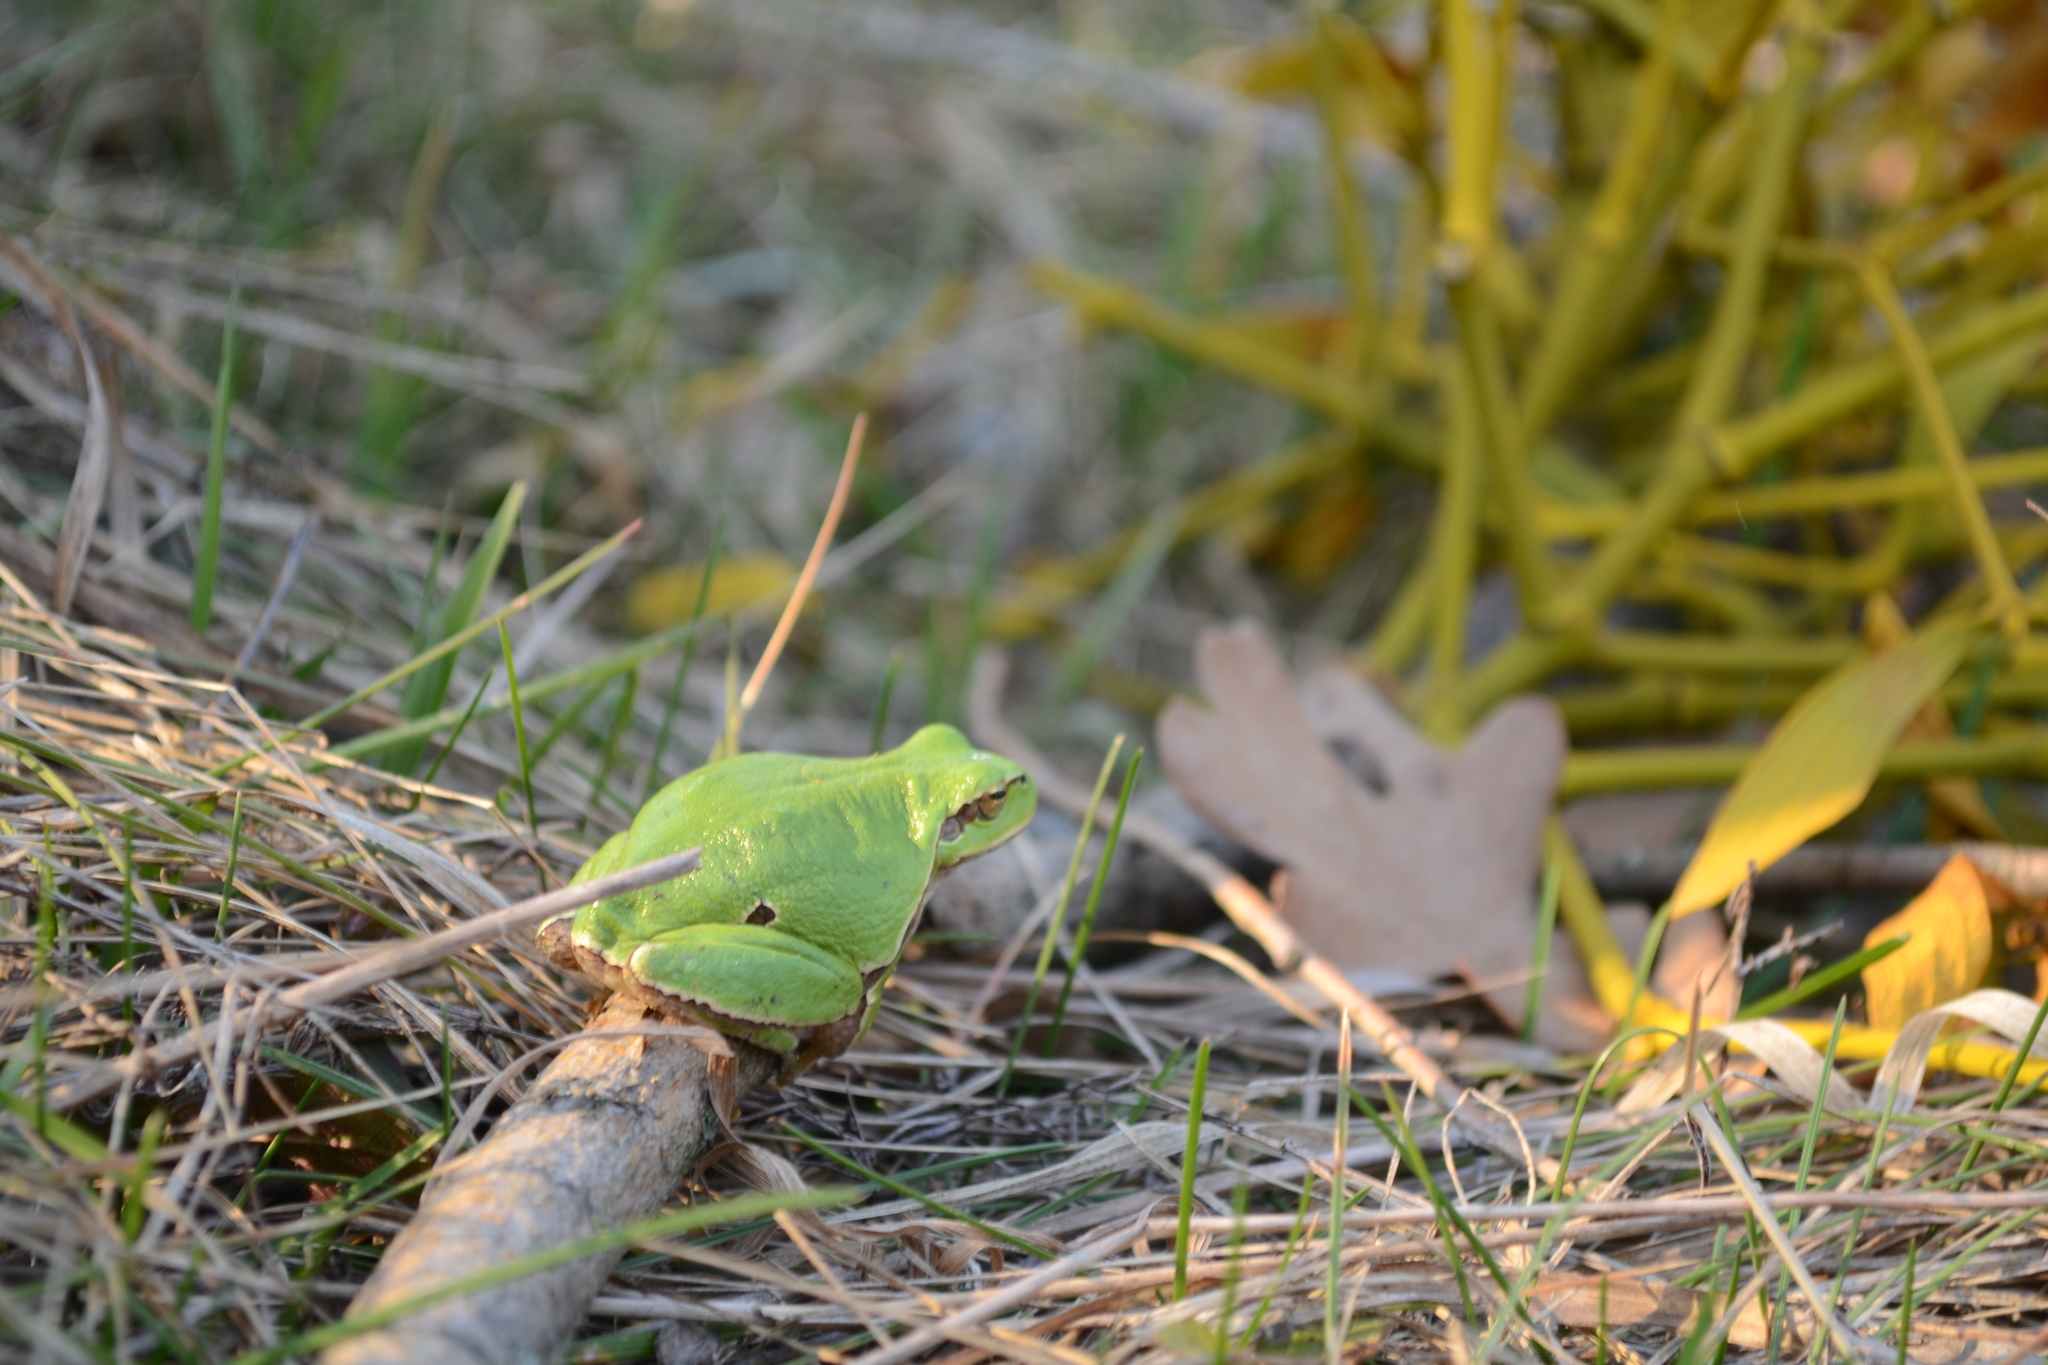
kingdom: Animalia
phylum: Chordata
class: Amphibia
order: Anura
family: Hylidae
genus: Hyla
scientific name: Hyla orientalis
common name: Caucasian treefrog
